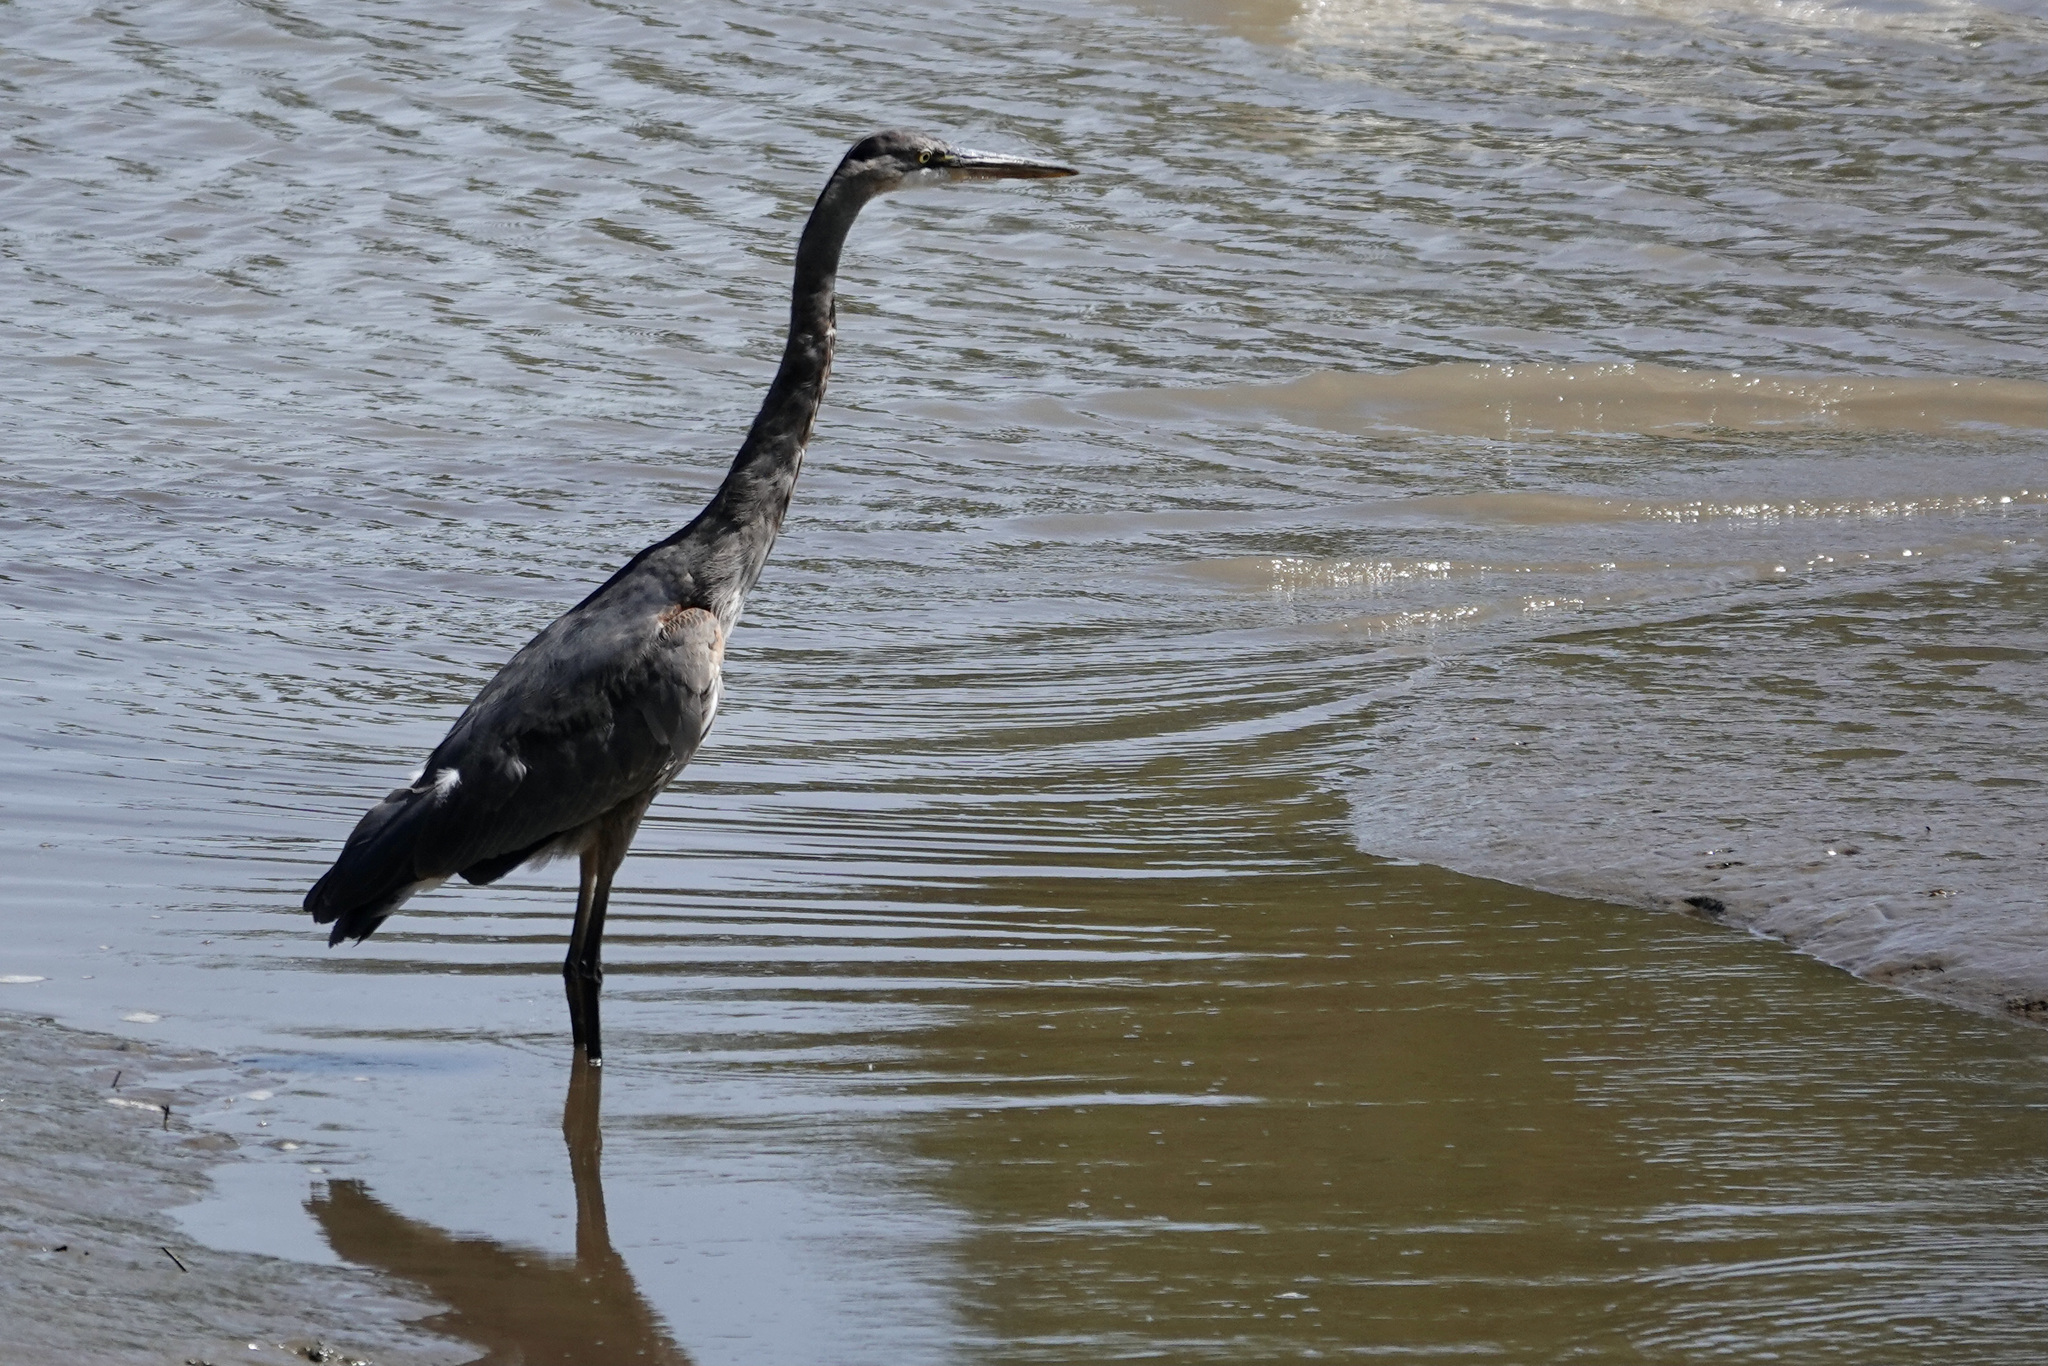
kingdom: Animalia
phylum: Chordata
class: Aves
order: Pelecaniformes
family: Ardeidae
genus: Ardea
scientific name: Ardea herodias
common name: Great blue heron
